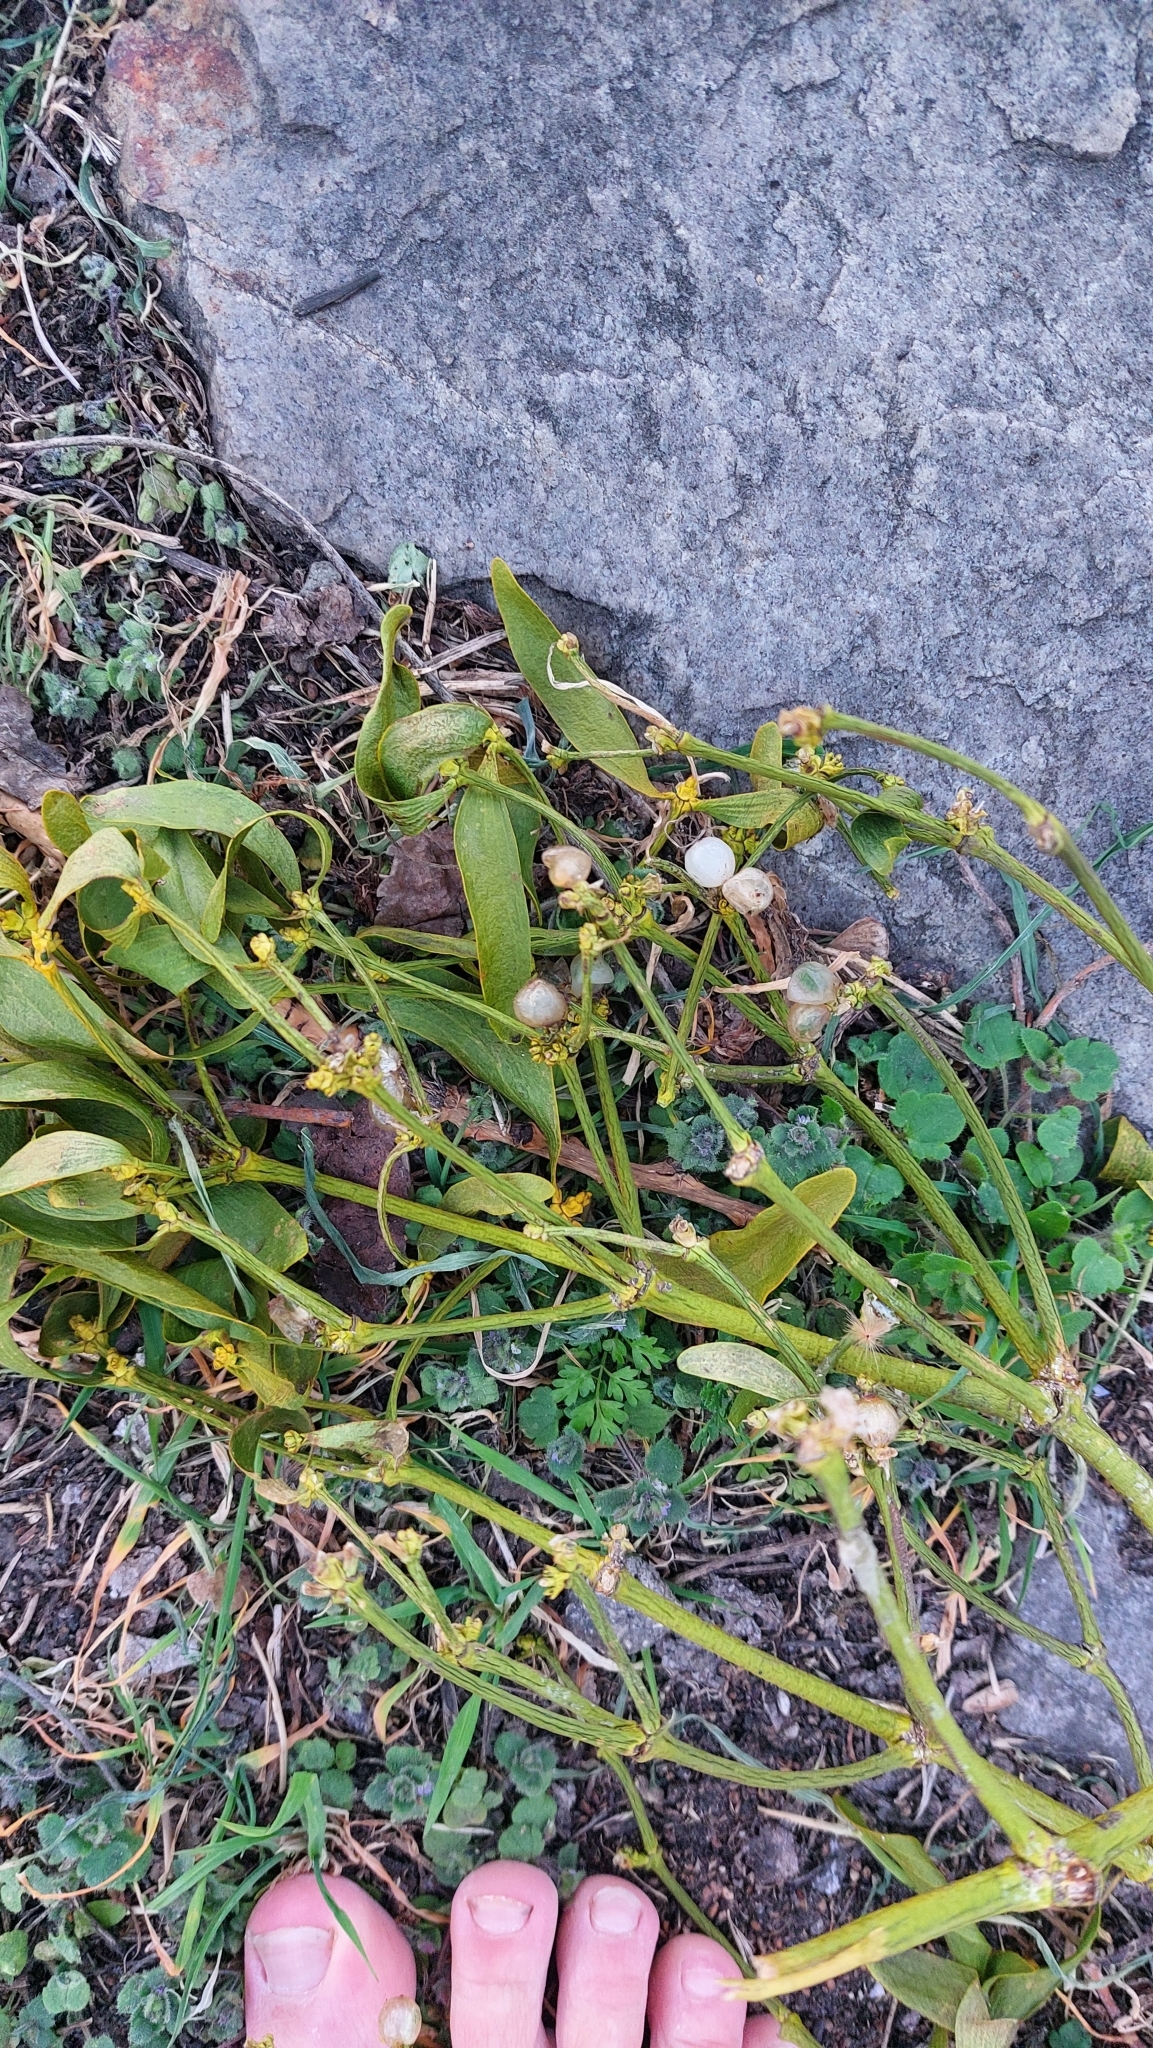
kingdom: Plantae
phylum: Tracheophyta
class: Magnoliopsida
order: Santalales
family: Viscaceae
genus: Viscum
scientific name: Viscum album
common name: Mistletoe
